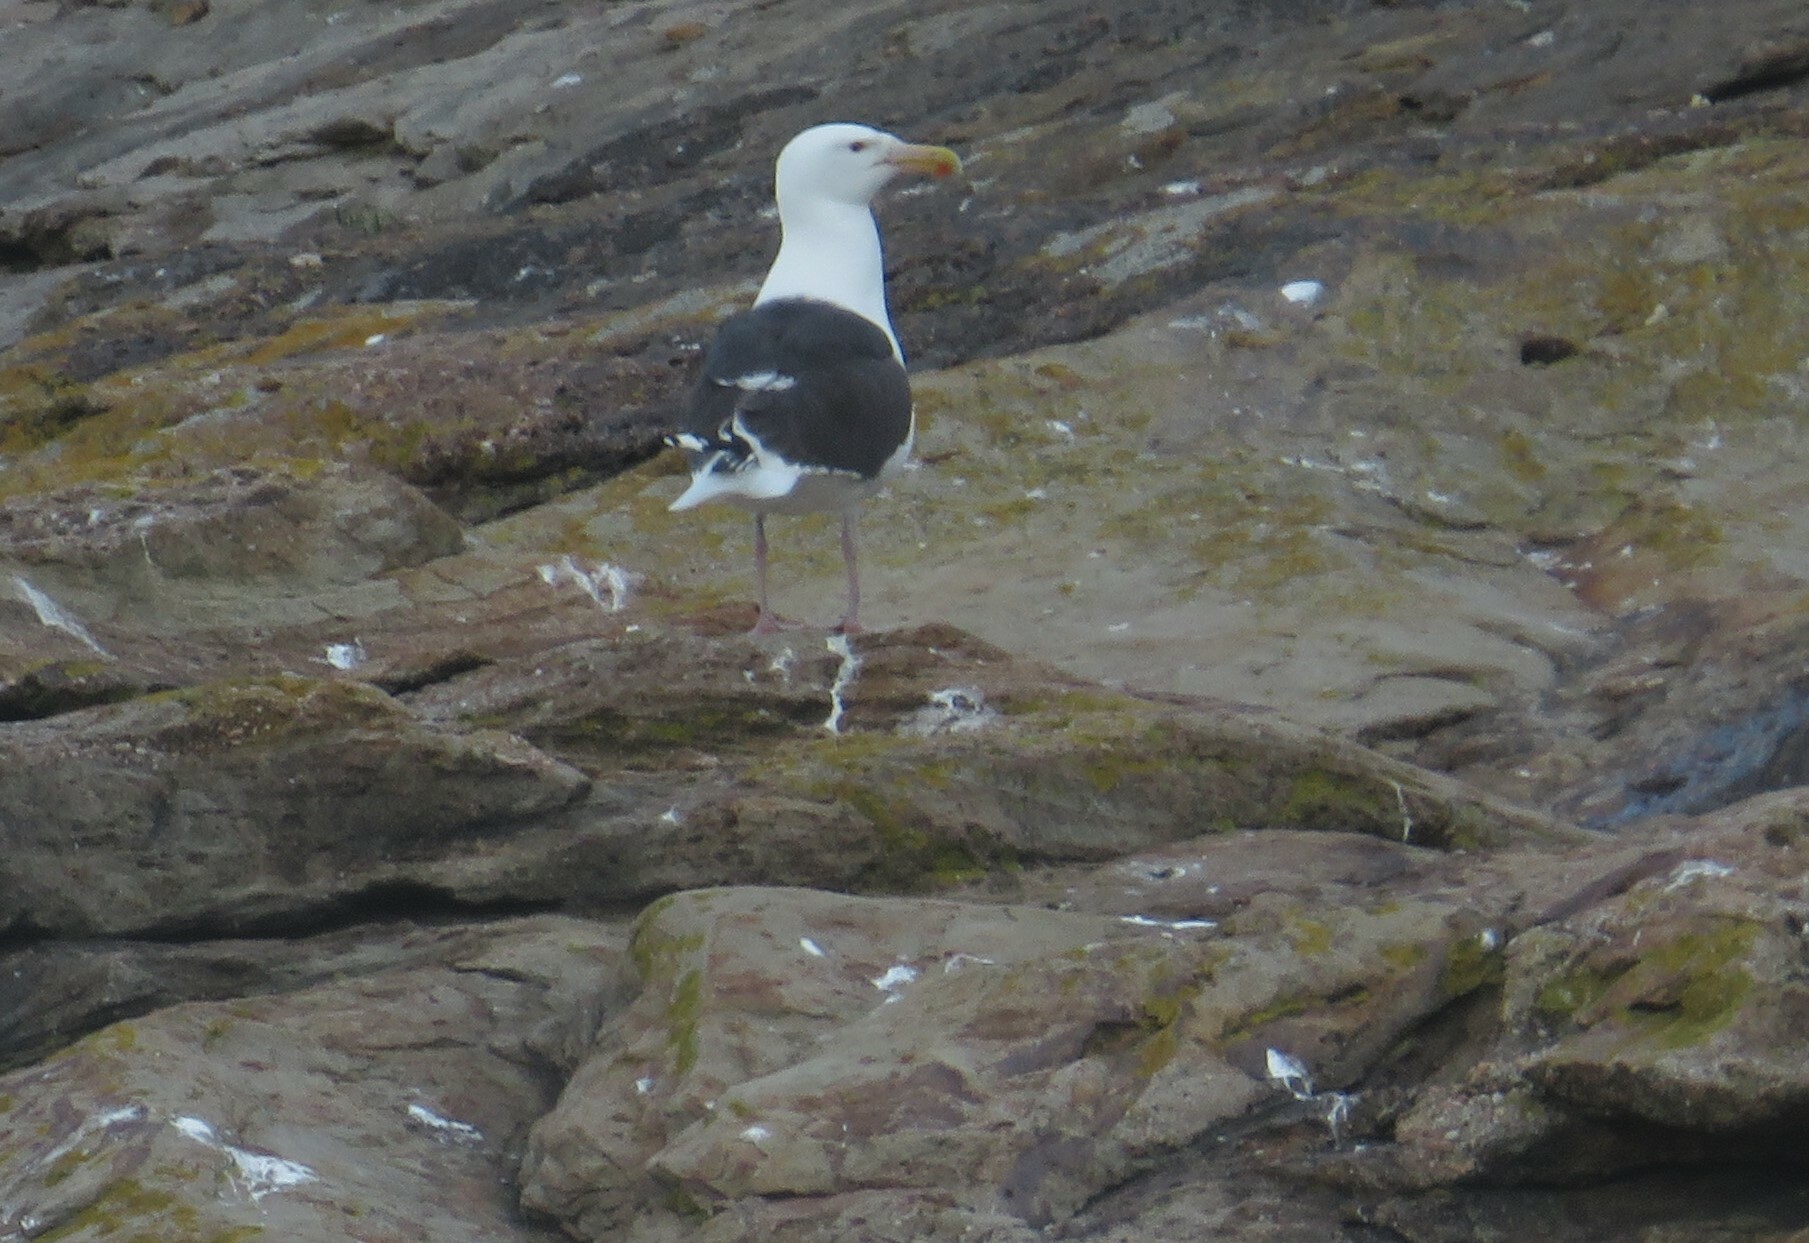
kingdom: Animalia
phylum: Chordata
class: Aves
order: Charadriiformes
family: Laridae
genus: Larus
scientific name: Larus marinus
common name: Great black-backed gull
